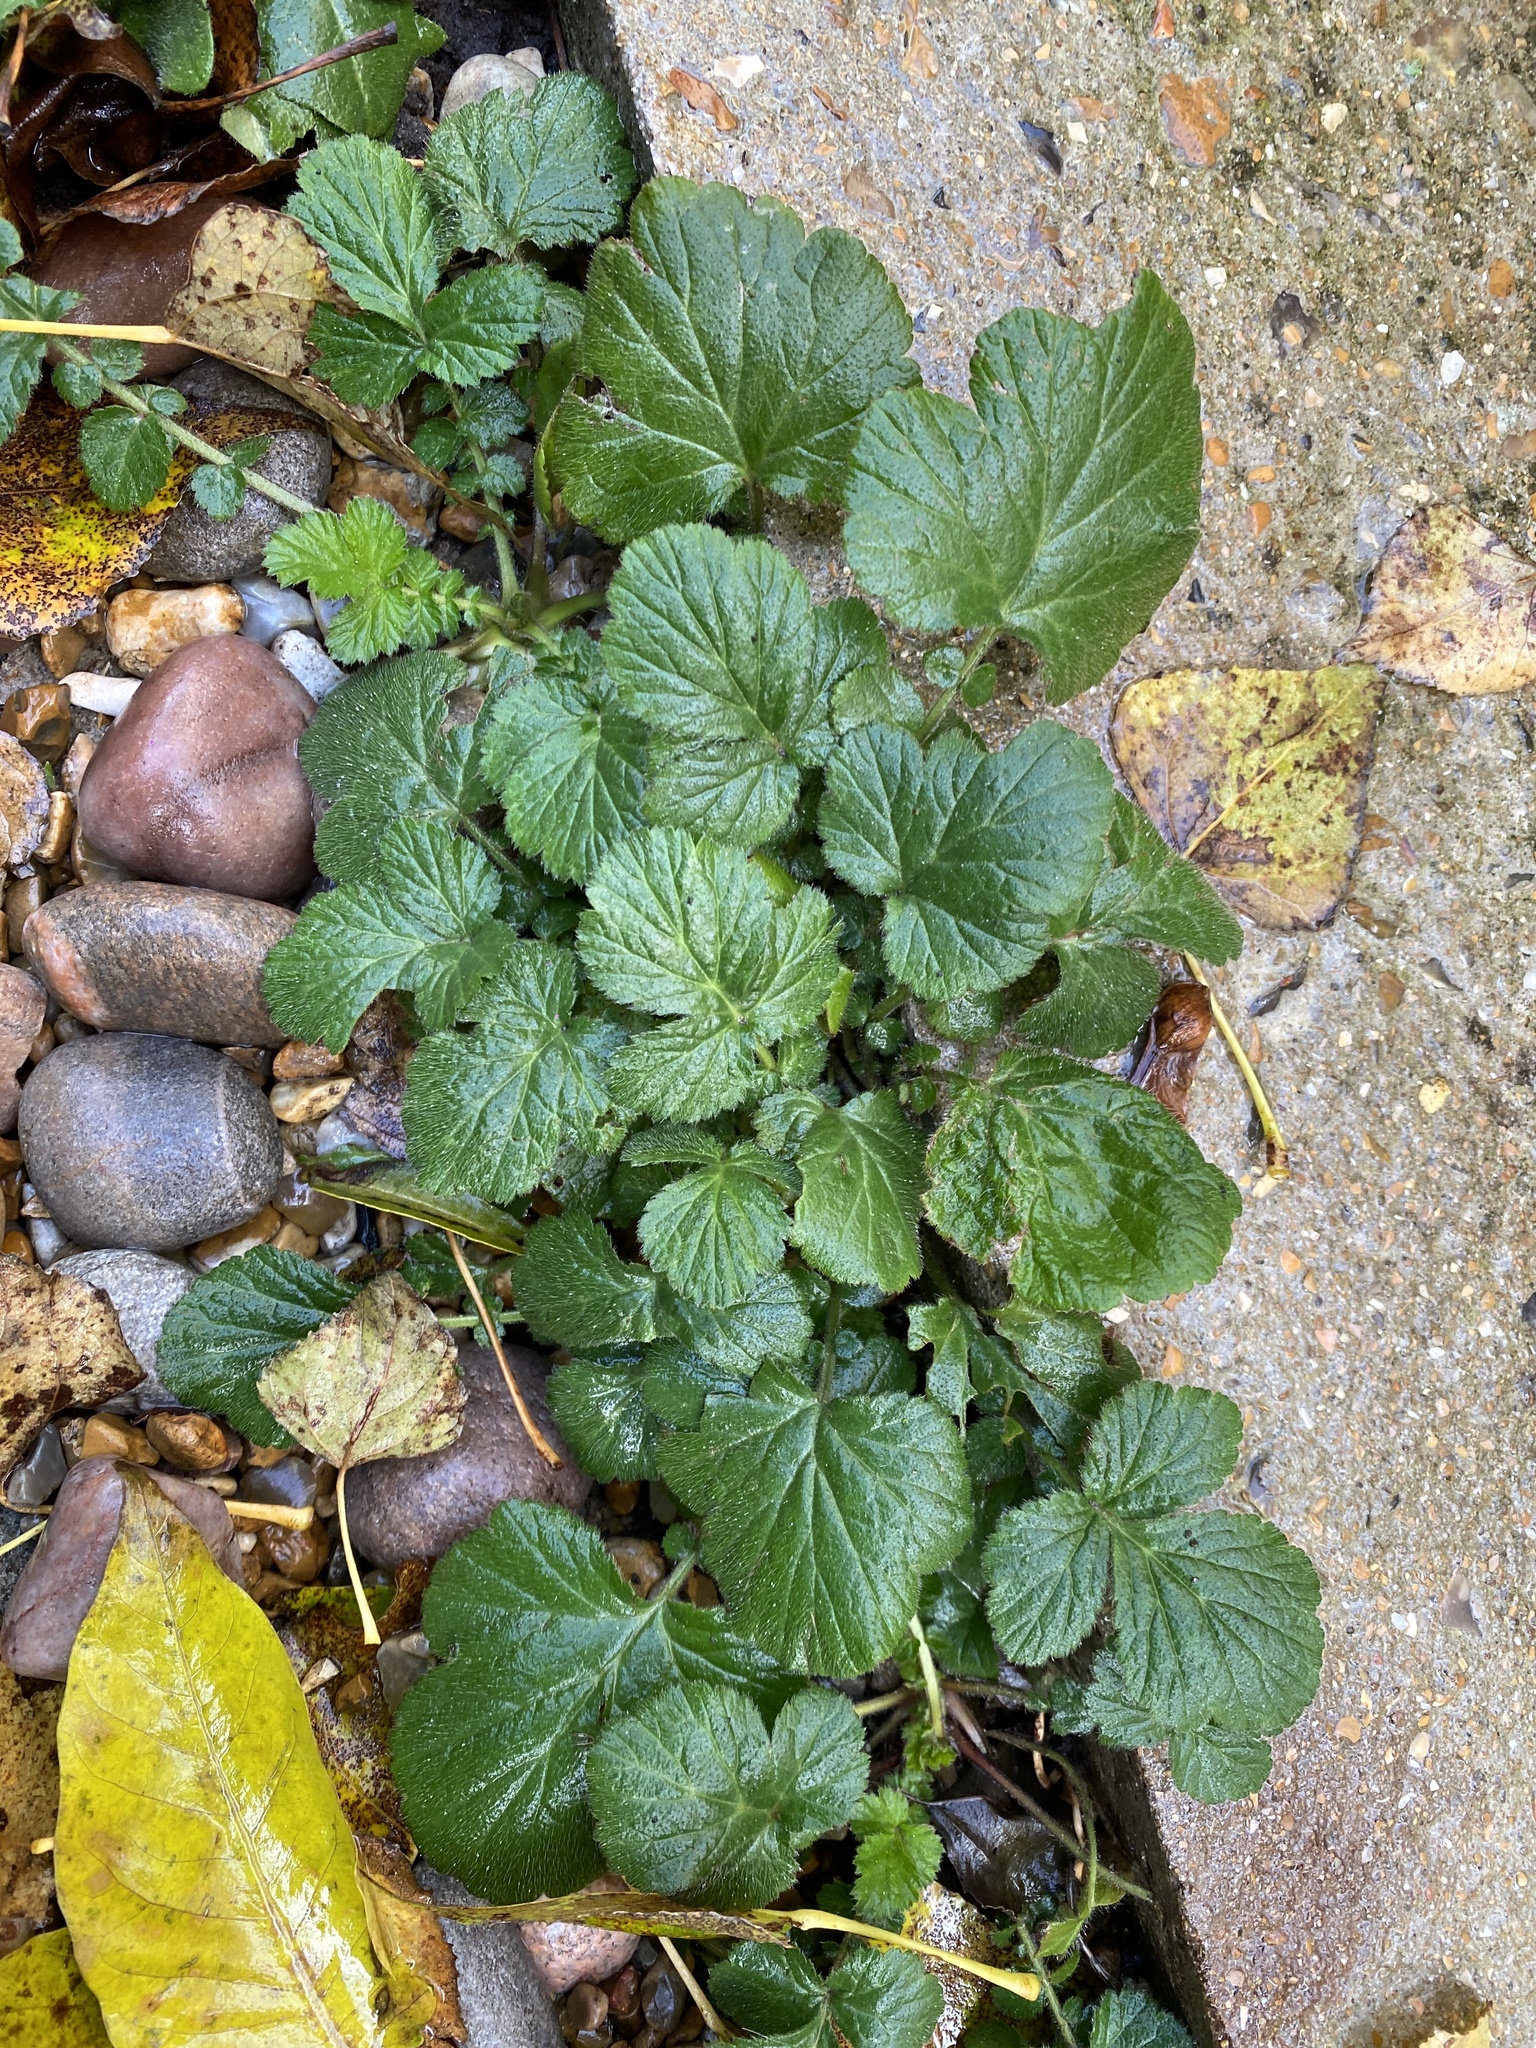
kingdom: Plantae
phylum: Tracheophyta
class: Magnoliopsida
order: Rosales
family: Rosaceae
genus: Geum
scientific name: Geum urbanum
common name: Wood avens
